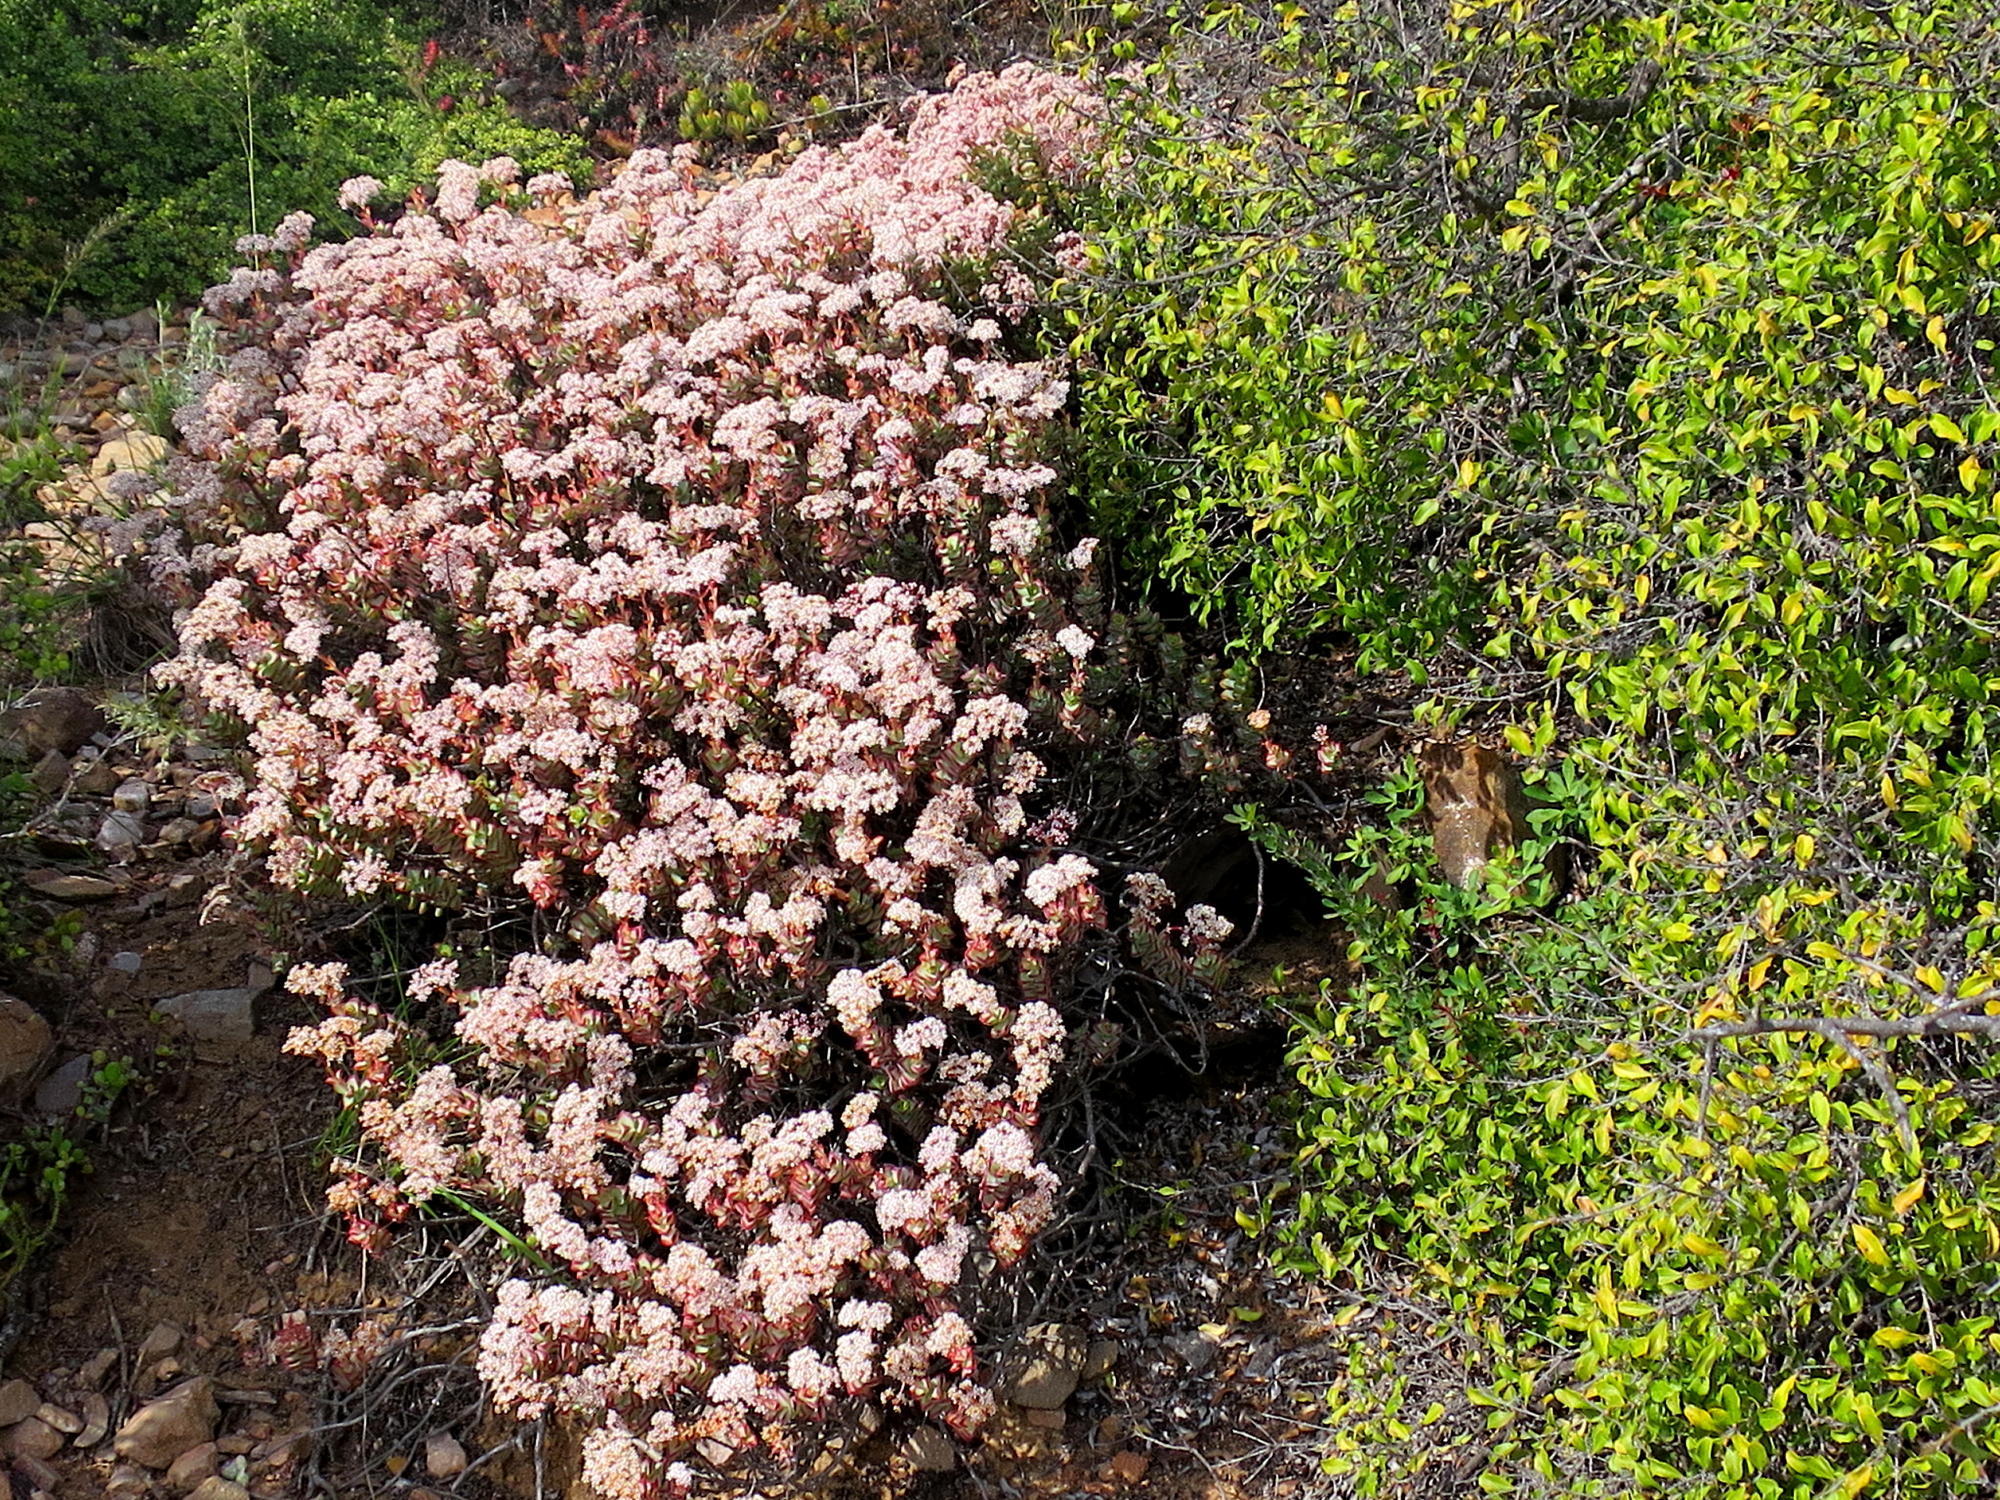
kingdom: Plantae
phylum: Tracheophyta
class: Magnoliopsida
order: Saxifragales
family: Crassulaceae
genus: Crassula
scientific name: Crassula rupestris
